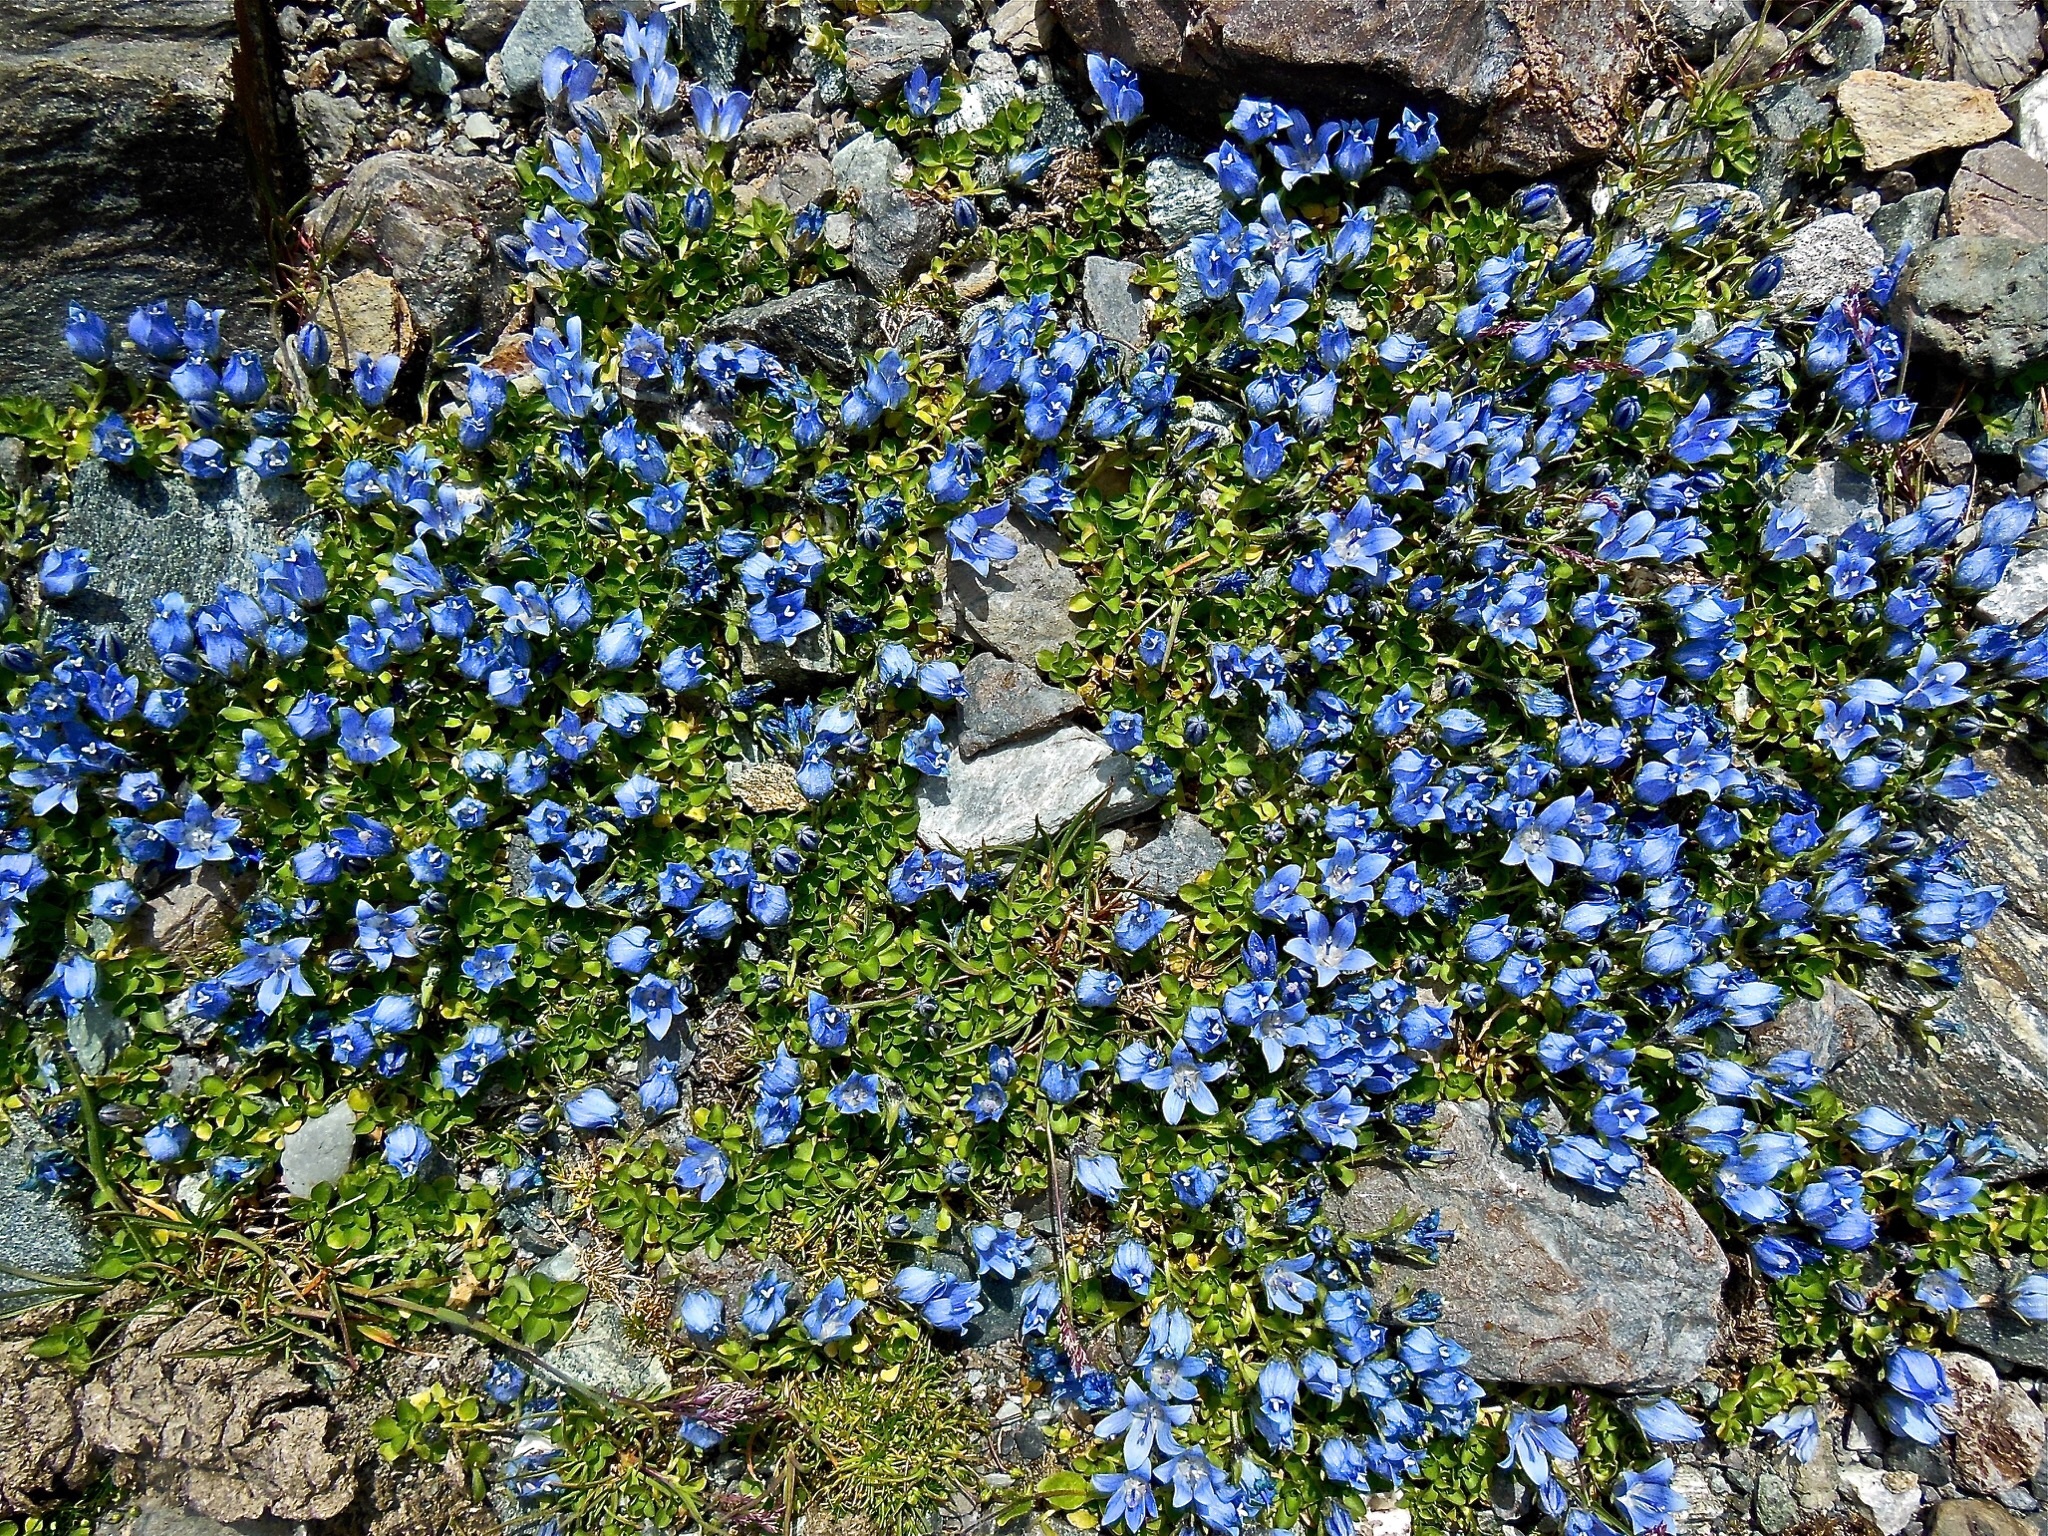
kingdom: Plantae
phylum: Tracheophyta
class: Magnoliopsida
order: Asterales
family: Campanulaceae
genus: Campanula
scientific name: Campanula cenisia
